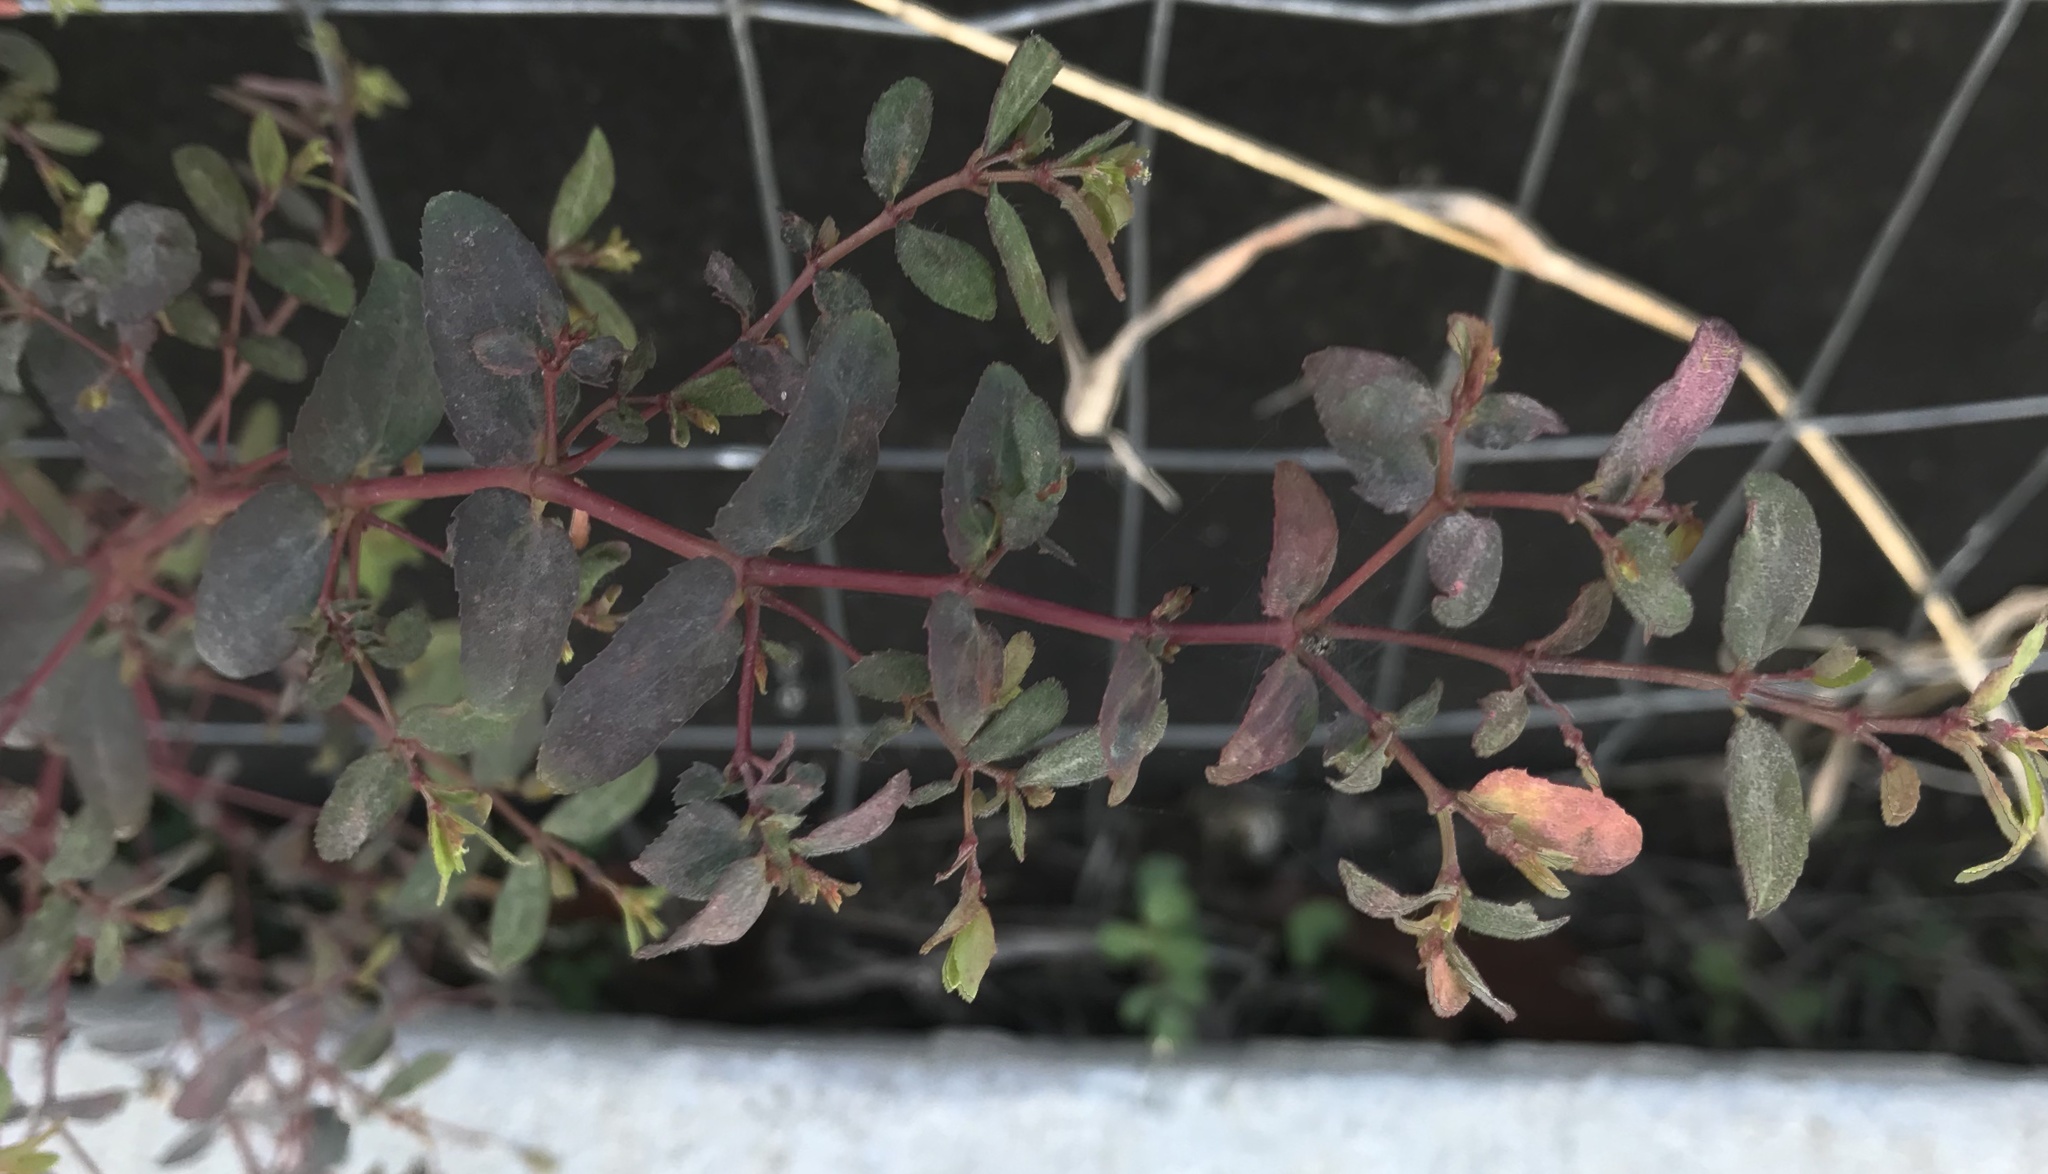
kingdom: Plantae
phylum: Tracheophyta
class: Magnoliopsida
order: Malpighiales
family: Euphorbiaceae
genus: Euphorbia
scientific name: Euphorbia nutans
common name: Eyebane
